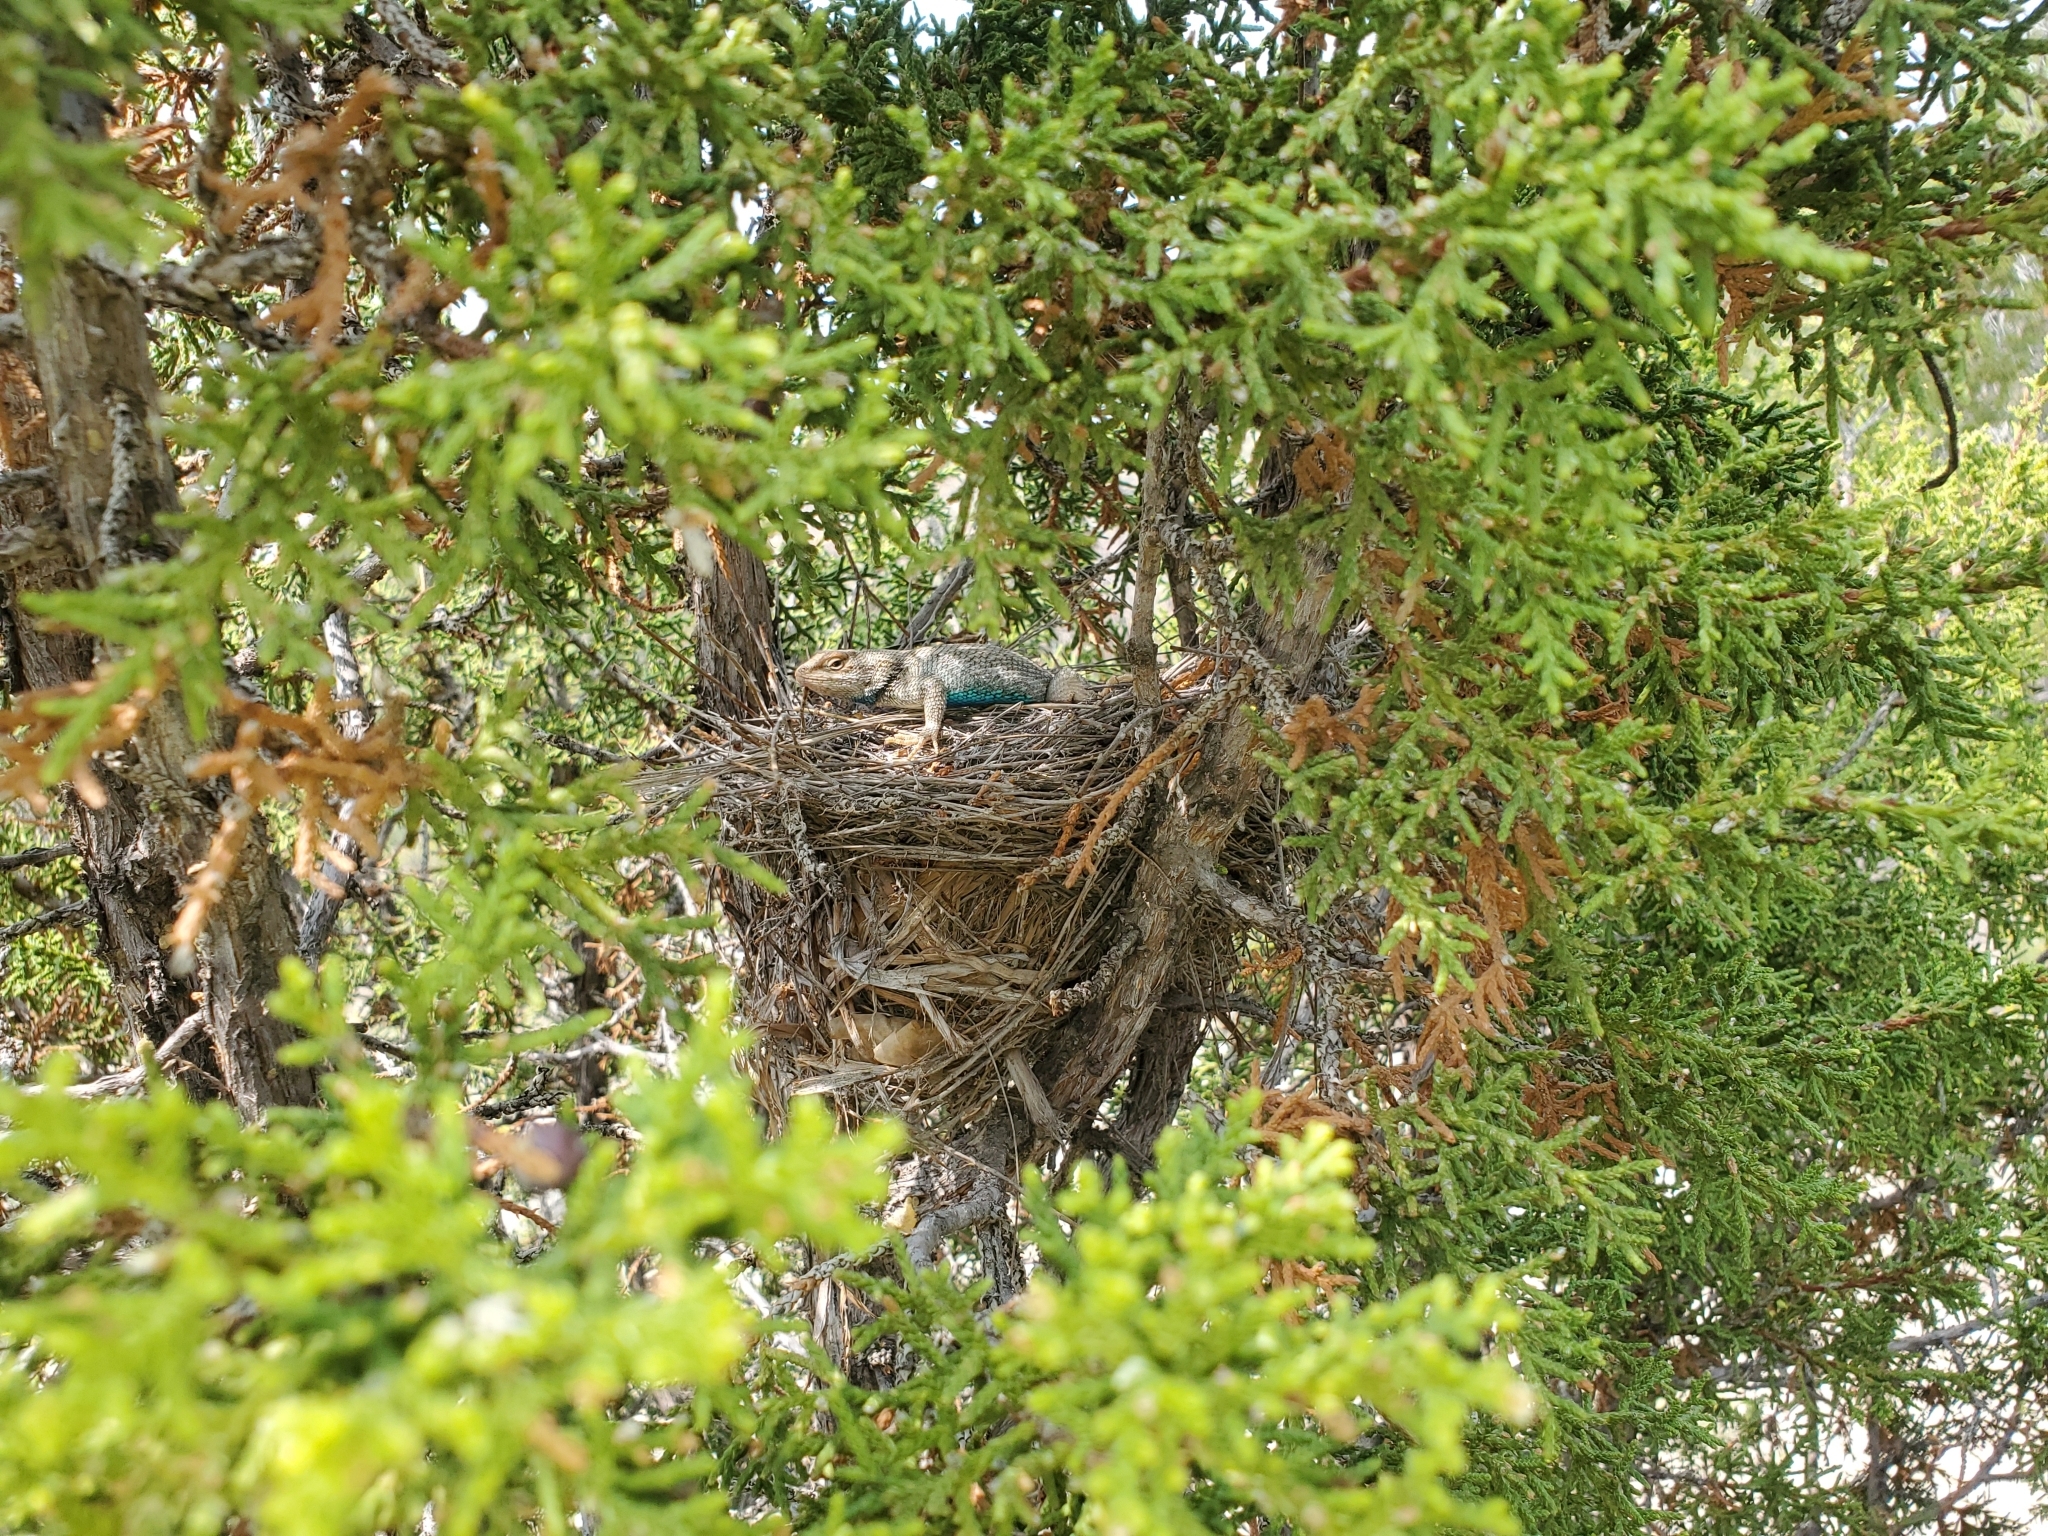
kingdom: Animalia
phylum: Chordata
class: Squamata
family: Phrynosomatidae
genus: Sceloporus
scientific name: Sceloporus consobrinus
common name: Southern prairie lizard
